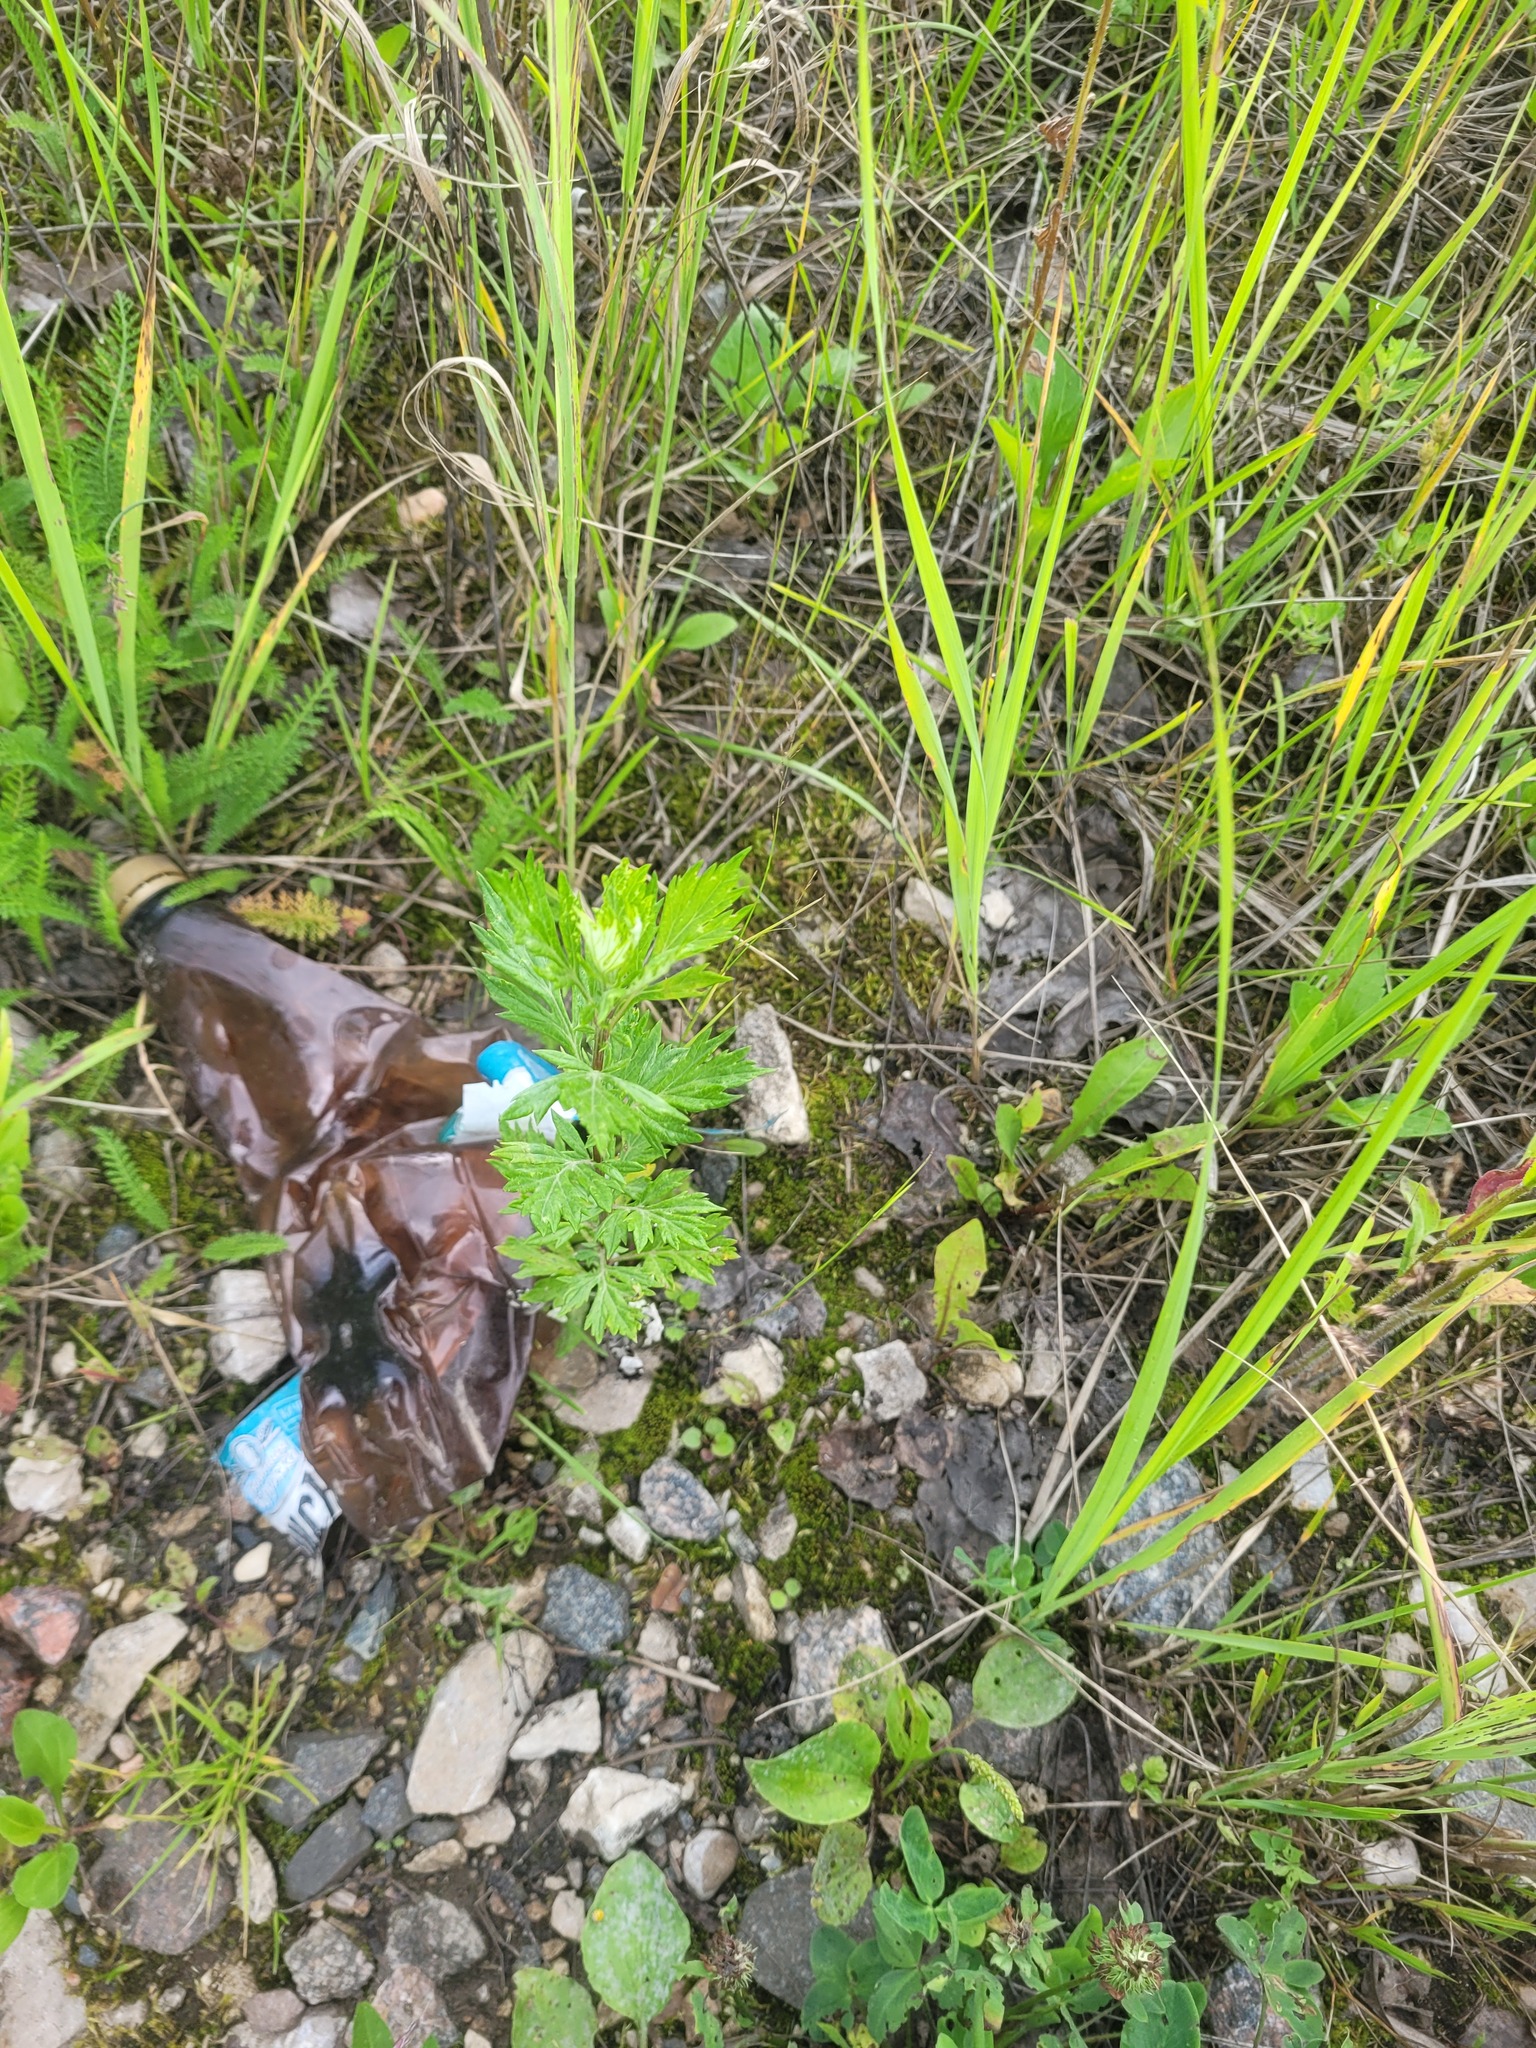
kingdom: Plantae
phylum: Tracheophyta
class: Magnoliopsida
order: Asterales
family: Asteraceae
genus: Artemisia
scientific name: Artemisia vulgaris
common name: Mugwort
